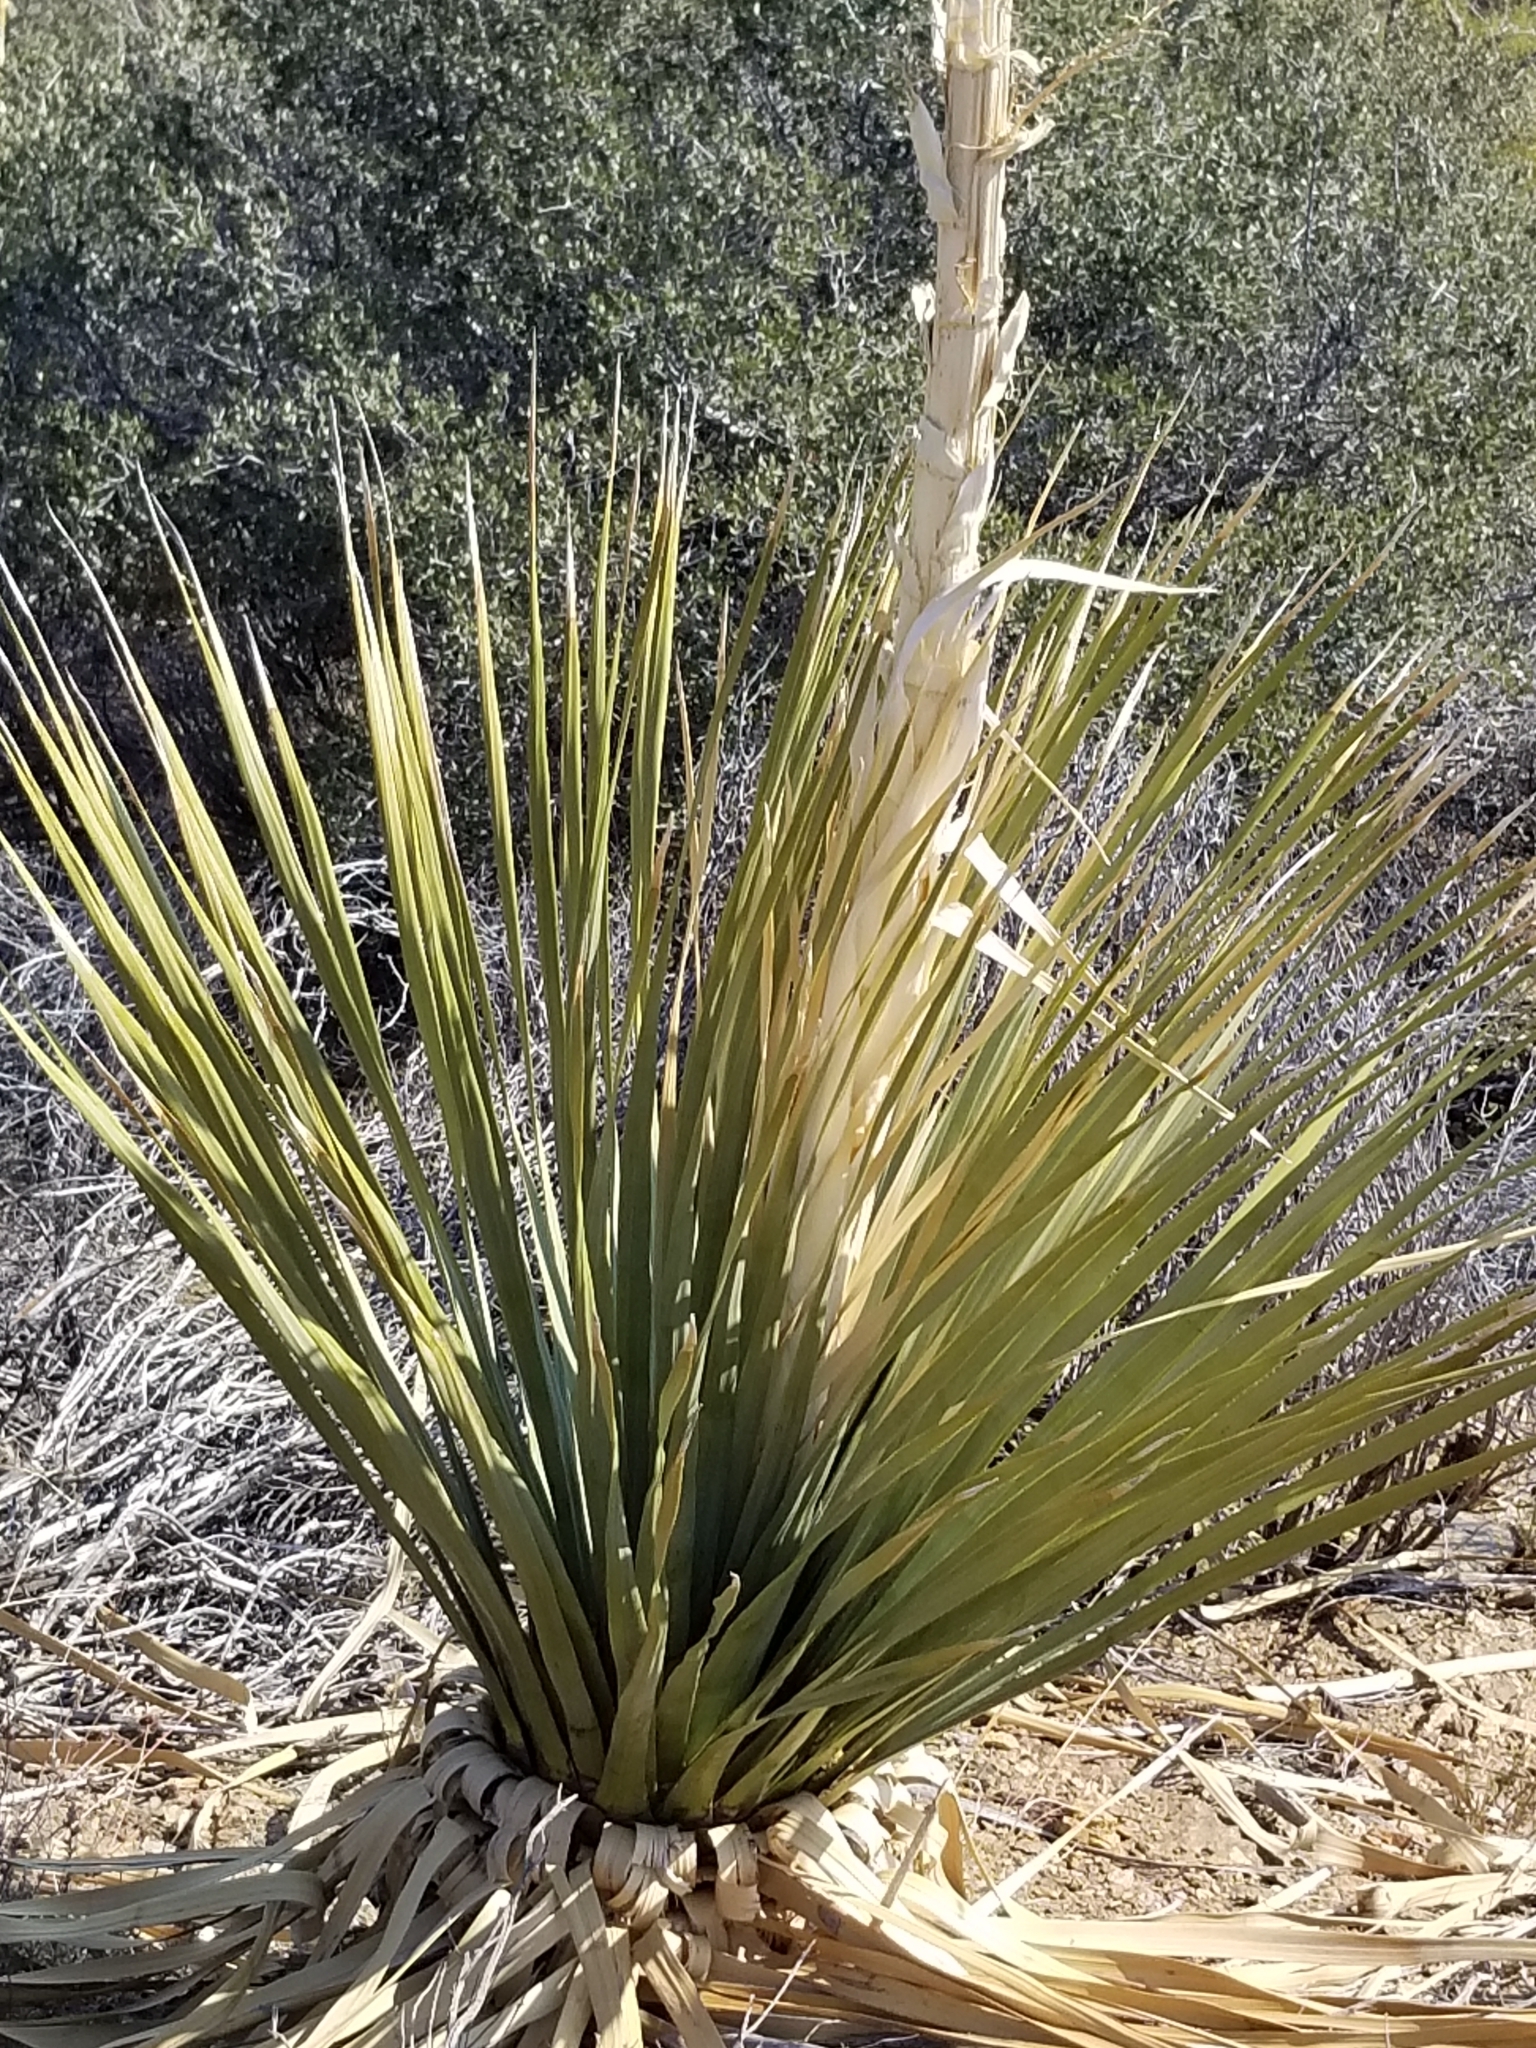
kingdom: Plantae
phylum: Tracheophyta
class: Liliopsida
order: Asparagales
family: Asparagaceae
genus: Nolina
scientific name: Nolina parryi
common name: Parry nolina
